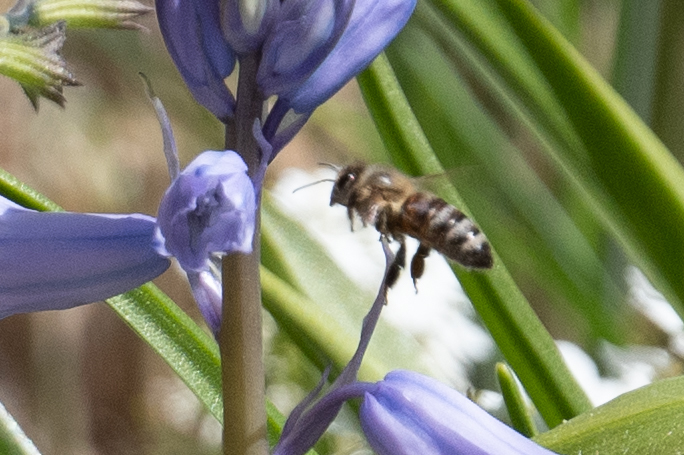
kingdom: Animalia
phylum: Arthropoda
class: Insecta
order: Hymenoptera
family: Apidae
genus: Apis
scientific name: Apis mellifera
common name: Honey bee
